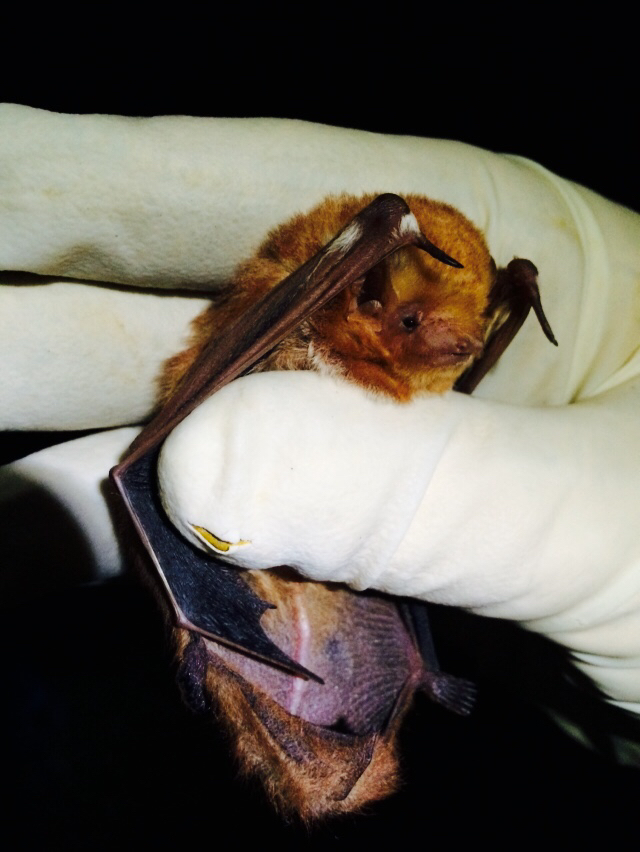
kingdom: Animalia
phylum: Chordata
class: Mammalia
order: Chiroptera
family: Vespertilionidae
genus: Lasiurus
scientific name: Lasiurus borealis
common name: Eastern red bat
